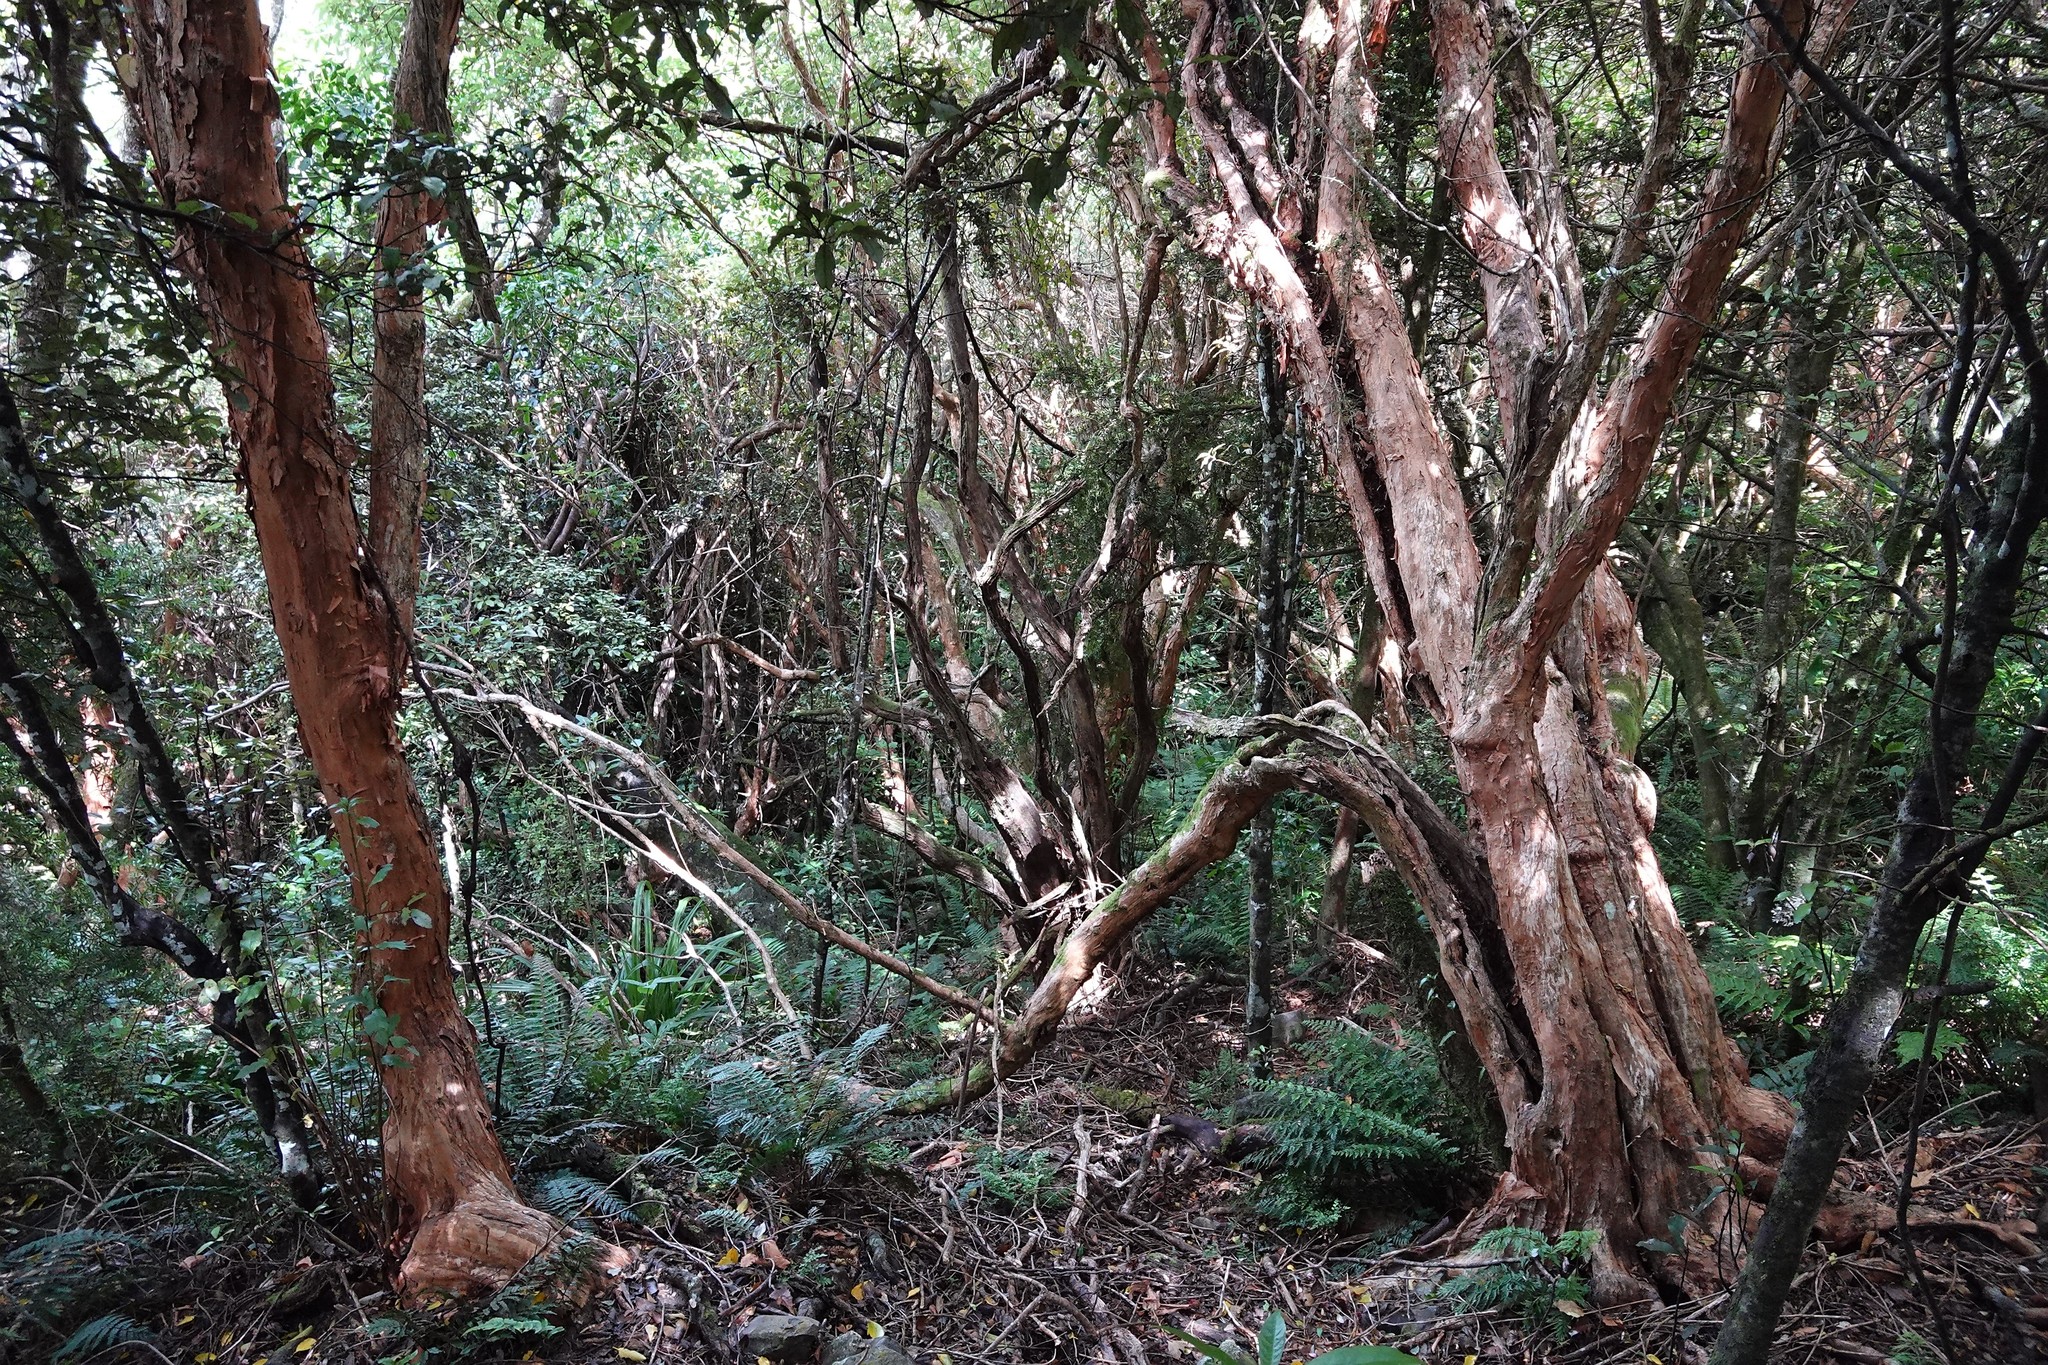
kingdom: Plantae
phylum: Tracheophyta
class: Magnoliopsida
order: Myrtales
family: Onagraceae
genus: Fuchsia
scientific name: Fuchsia excorticata
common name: Tree fuchsia
